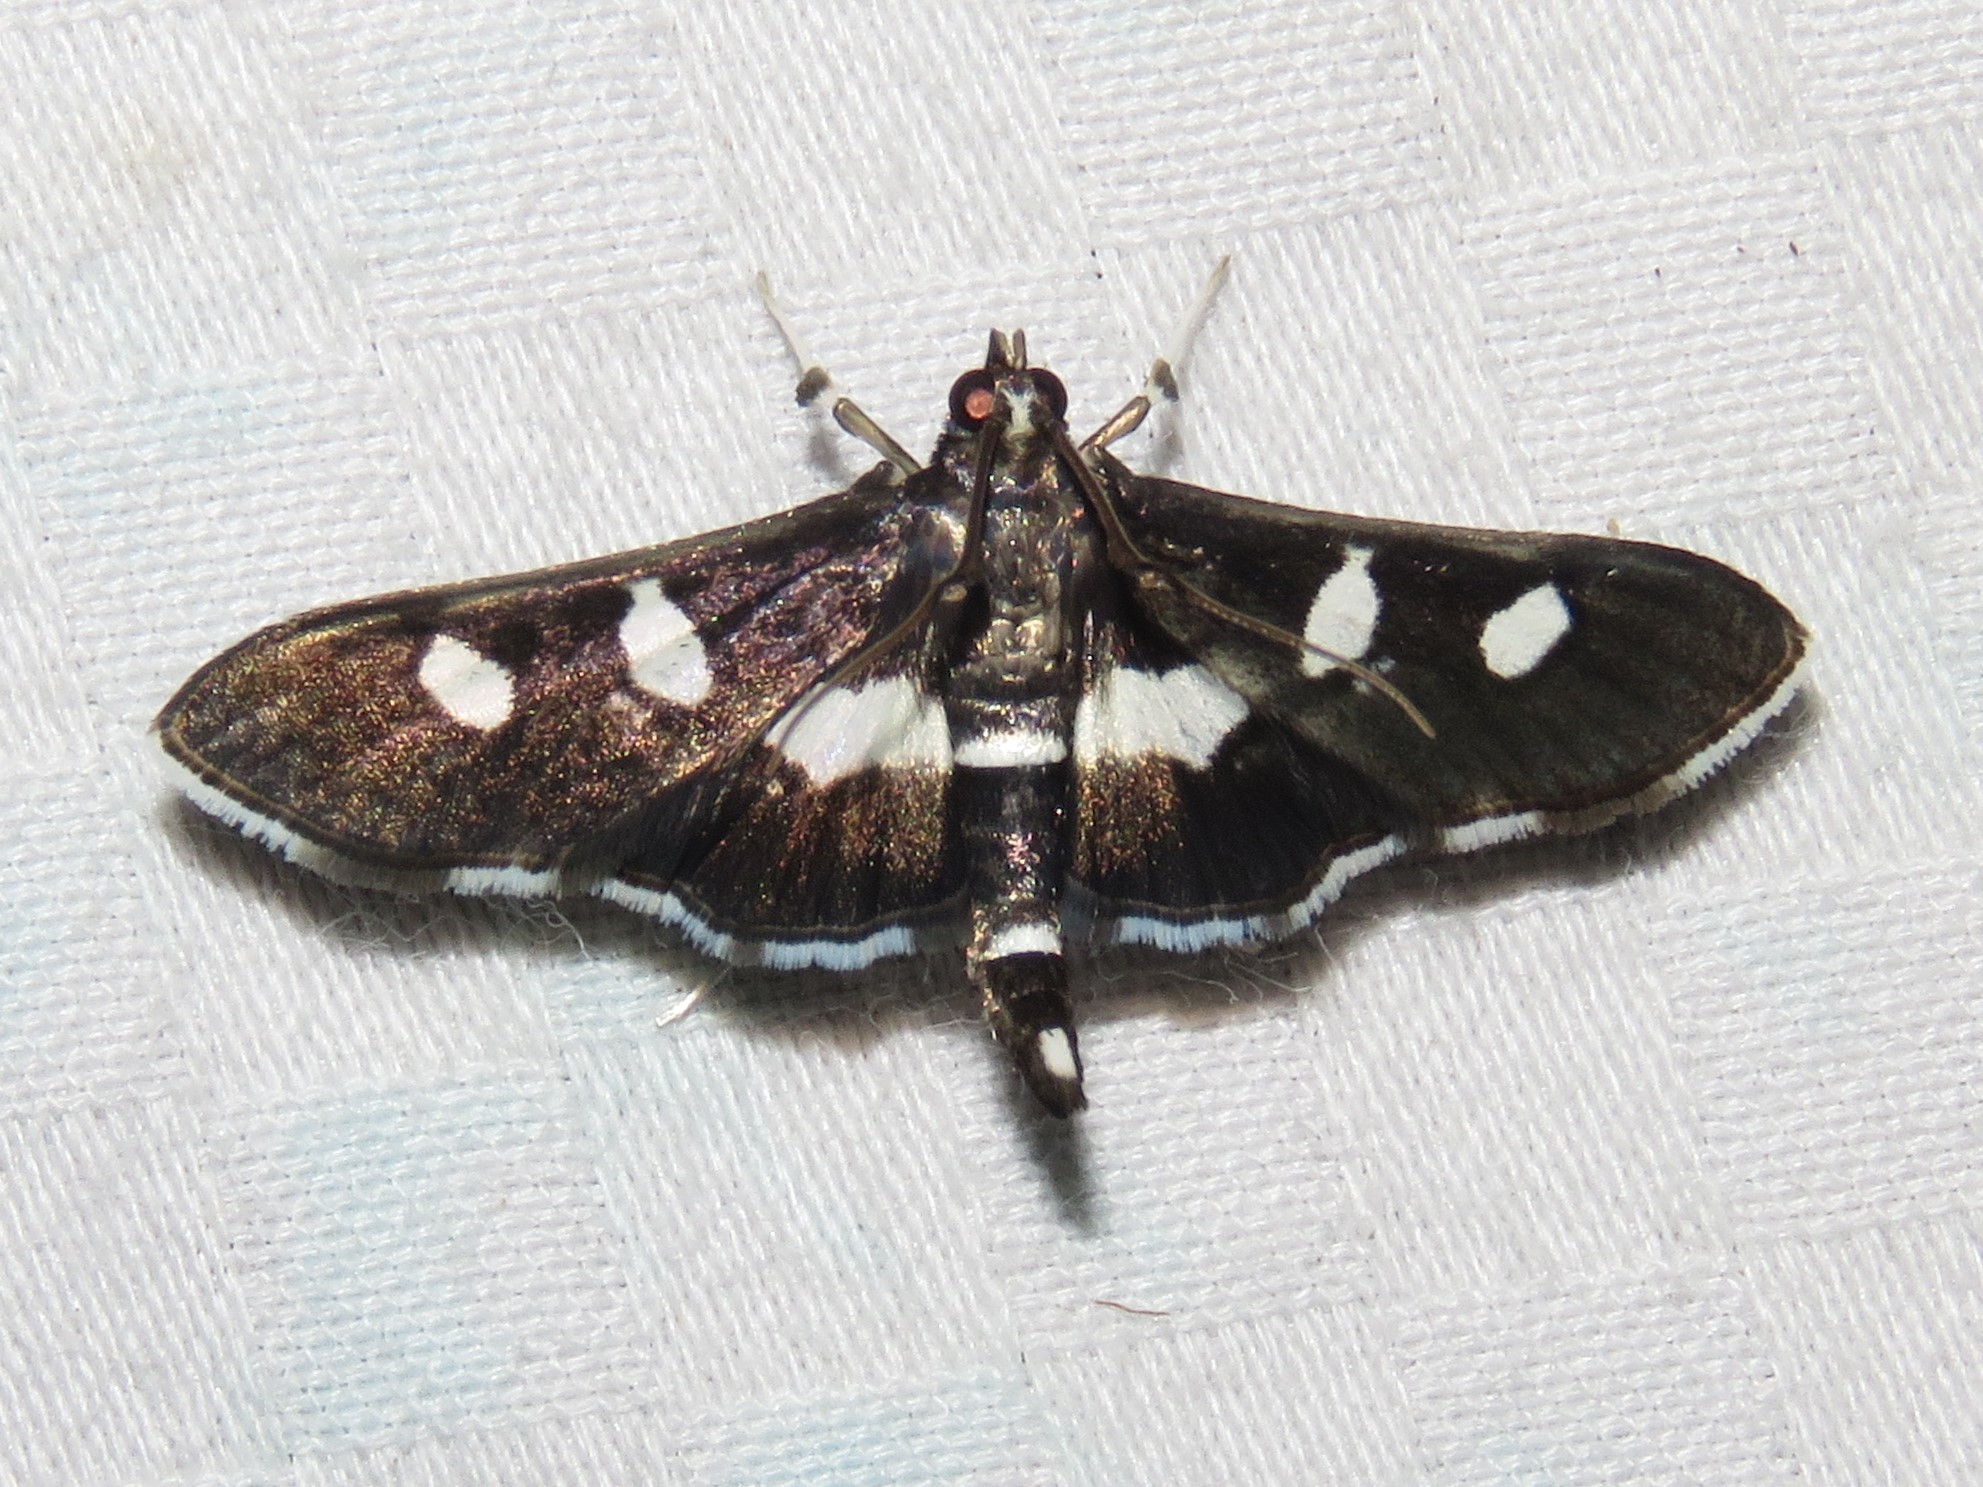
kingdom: Animalia
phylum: Arthropoda
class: Insecta
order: Lepidoptera
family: Crambidae
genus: Desmia
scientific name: Desmia
